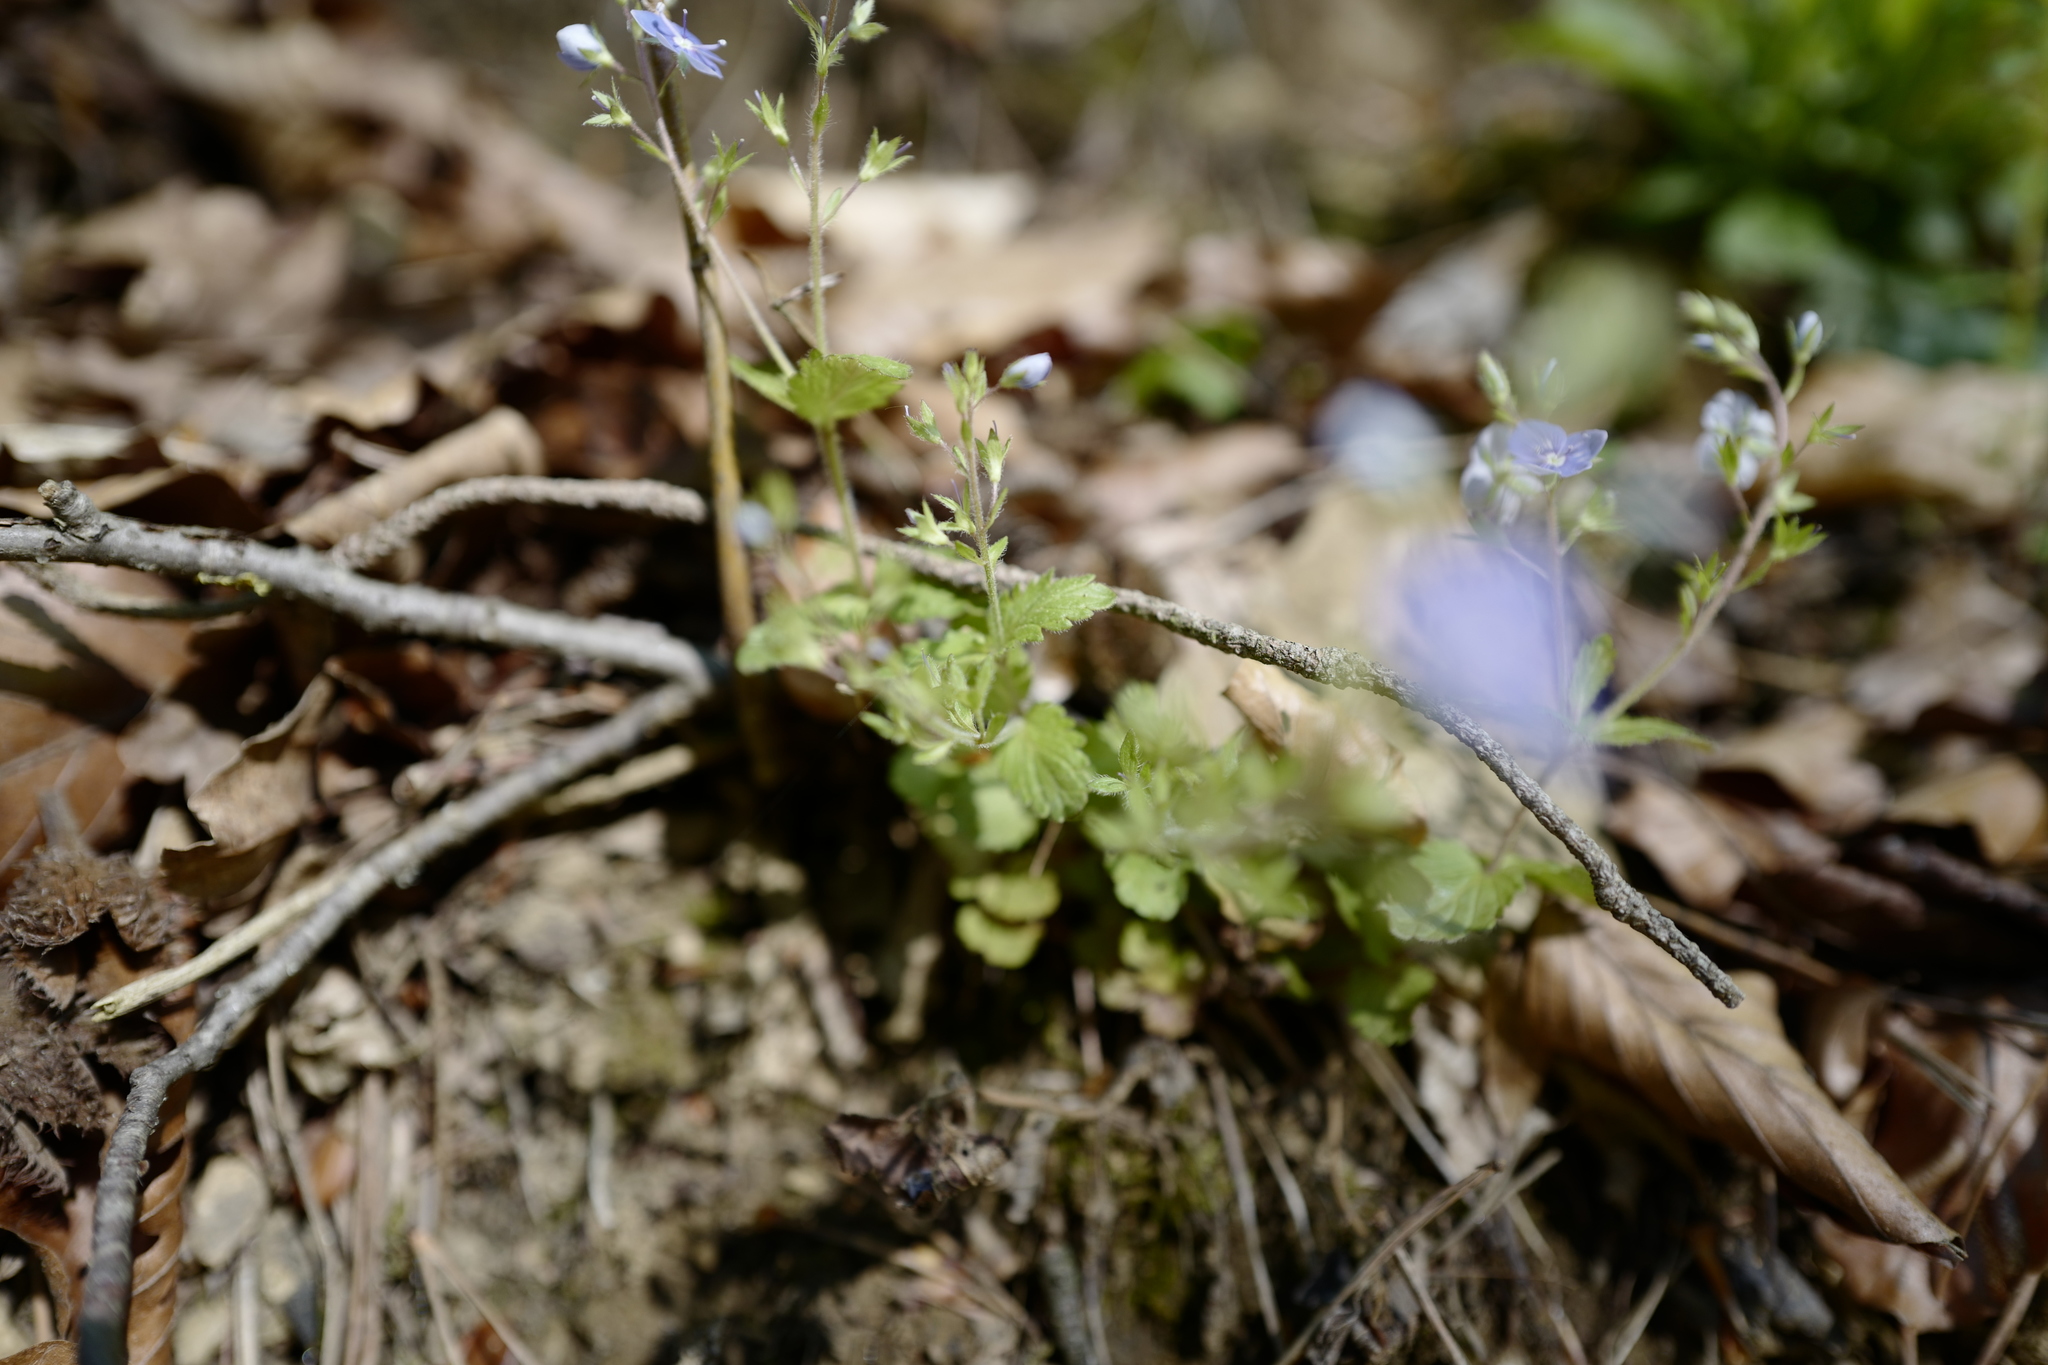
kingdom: Plantae
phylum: Tracheophyta
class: Magnoliopsida
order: Lamiales
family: Plantaginaceae
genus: Veronica
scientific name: Veronica chamaedrys
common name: Germander speedwell
